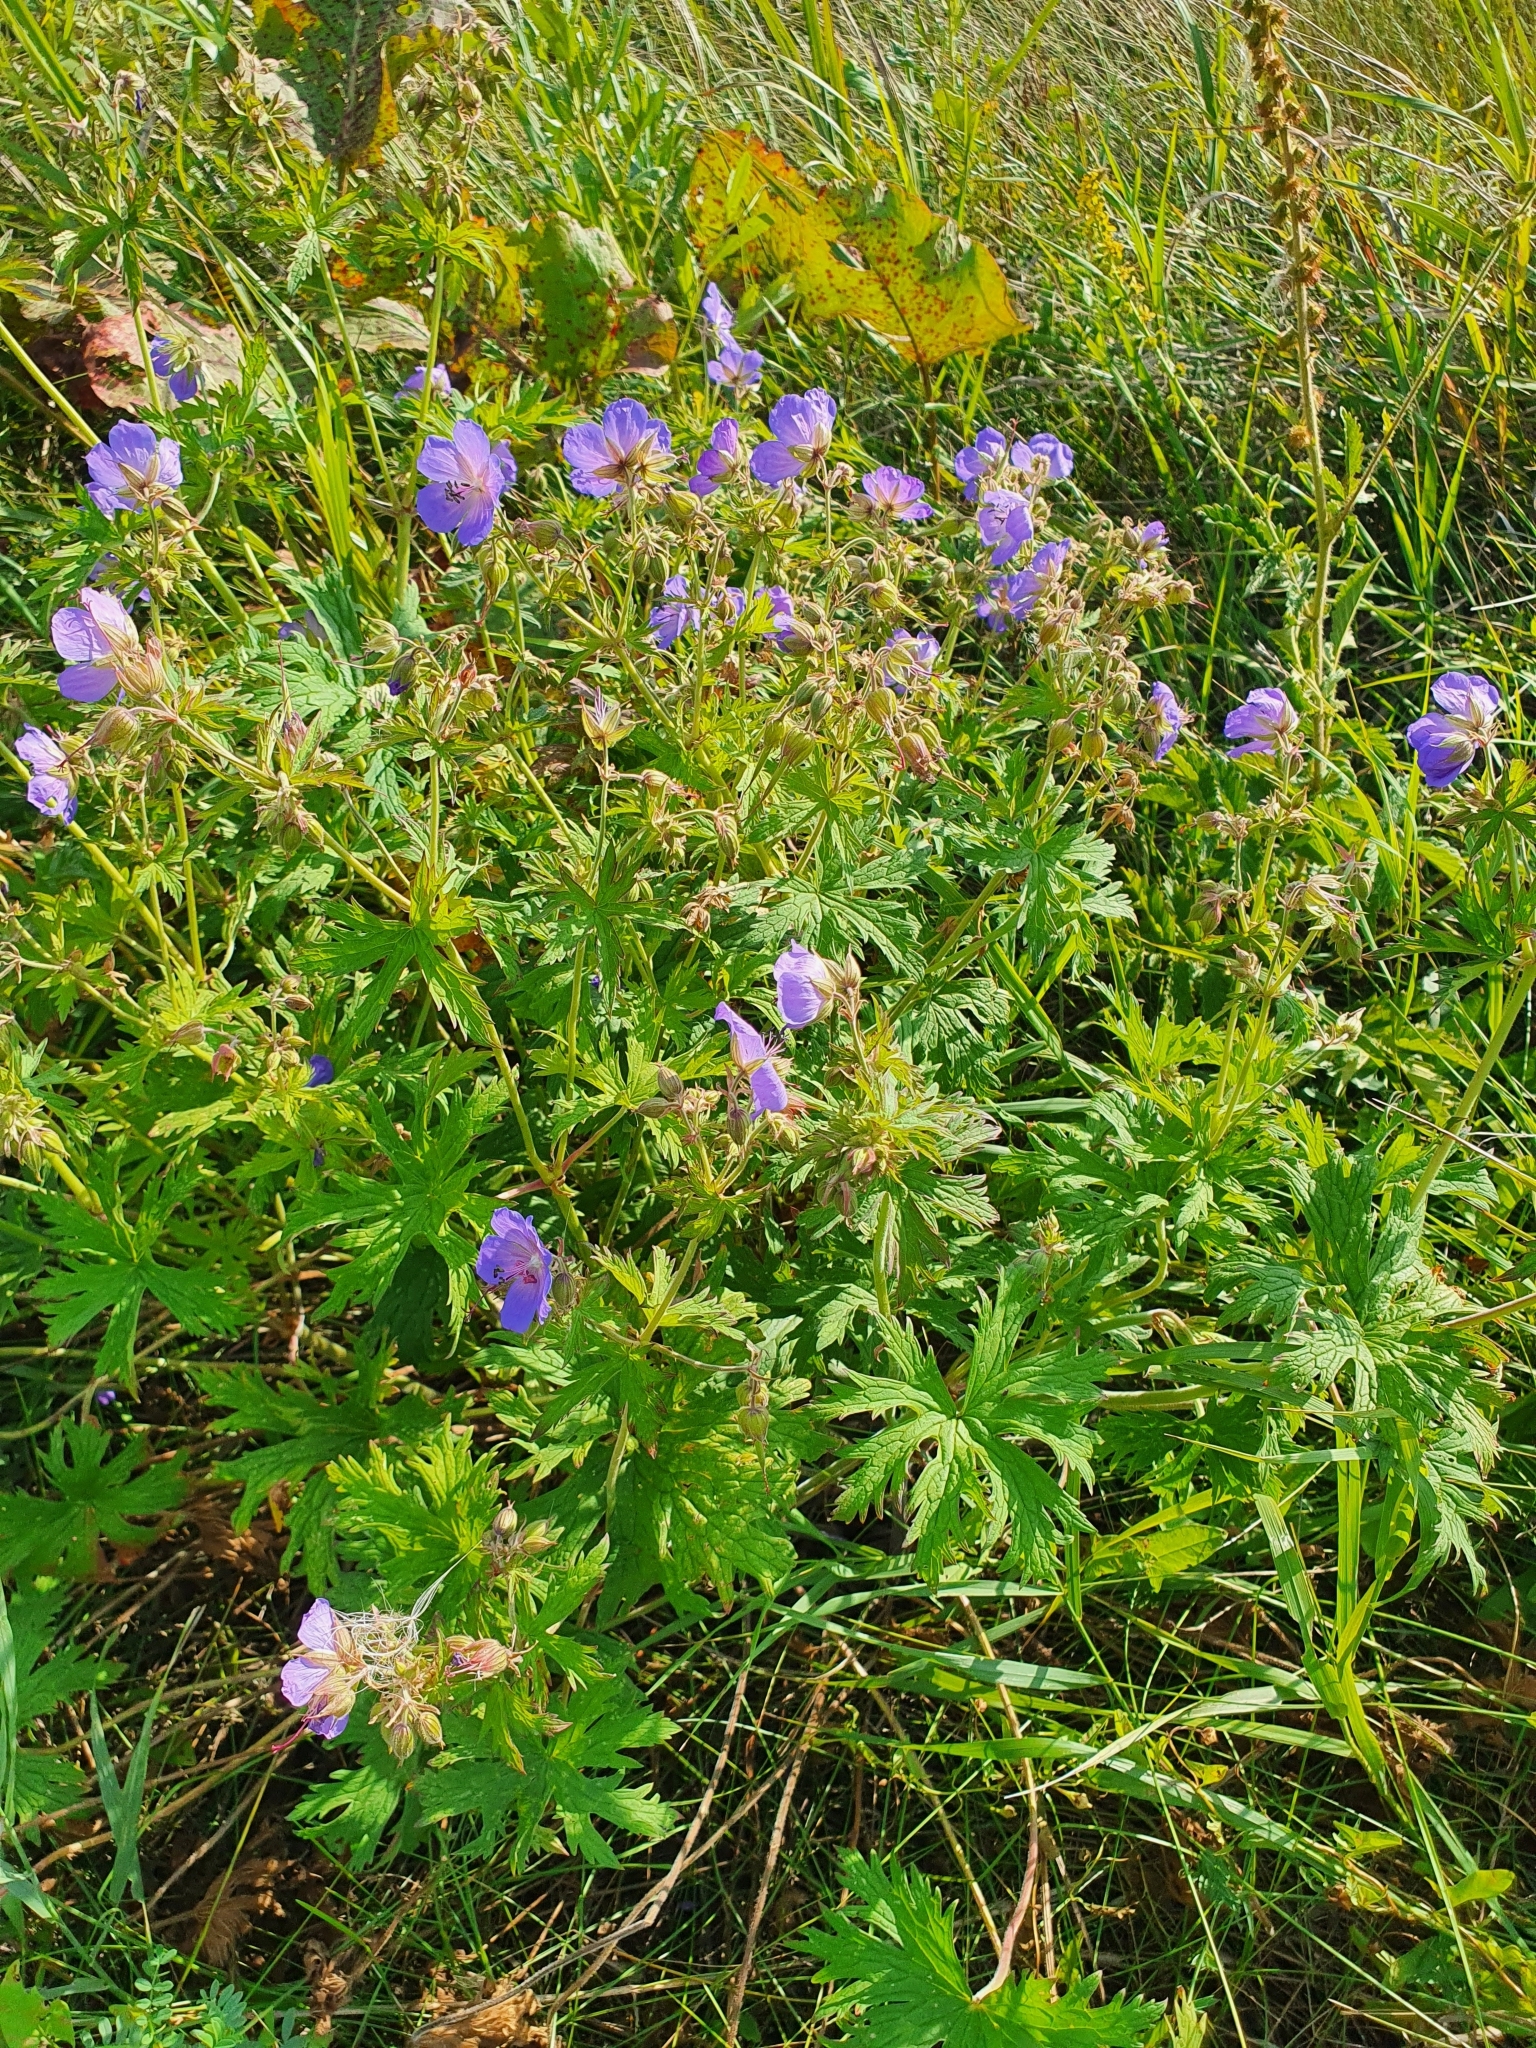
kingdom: Plantae
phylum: Tracheophyta
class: Magnoliopsida
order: Geraniales
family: Geraniaceae
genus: Geranium
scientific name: Geranium pratense
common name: Meadow crane's-bill
